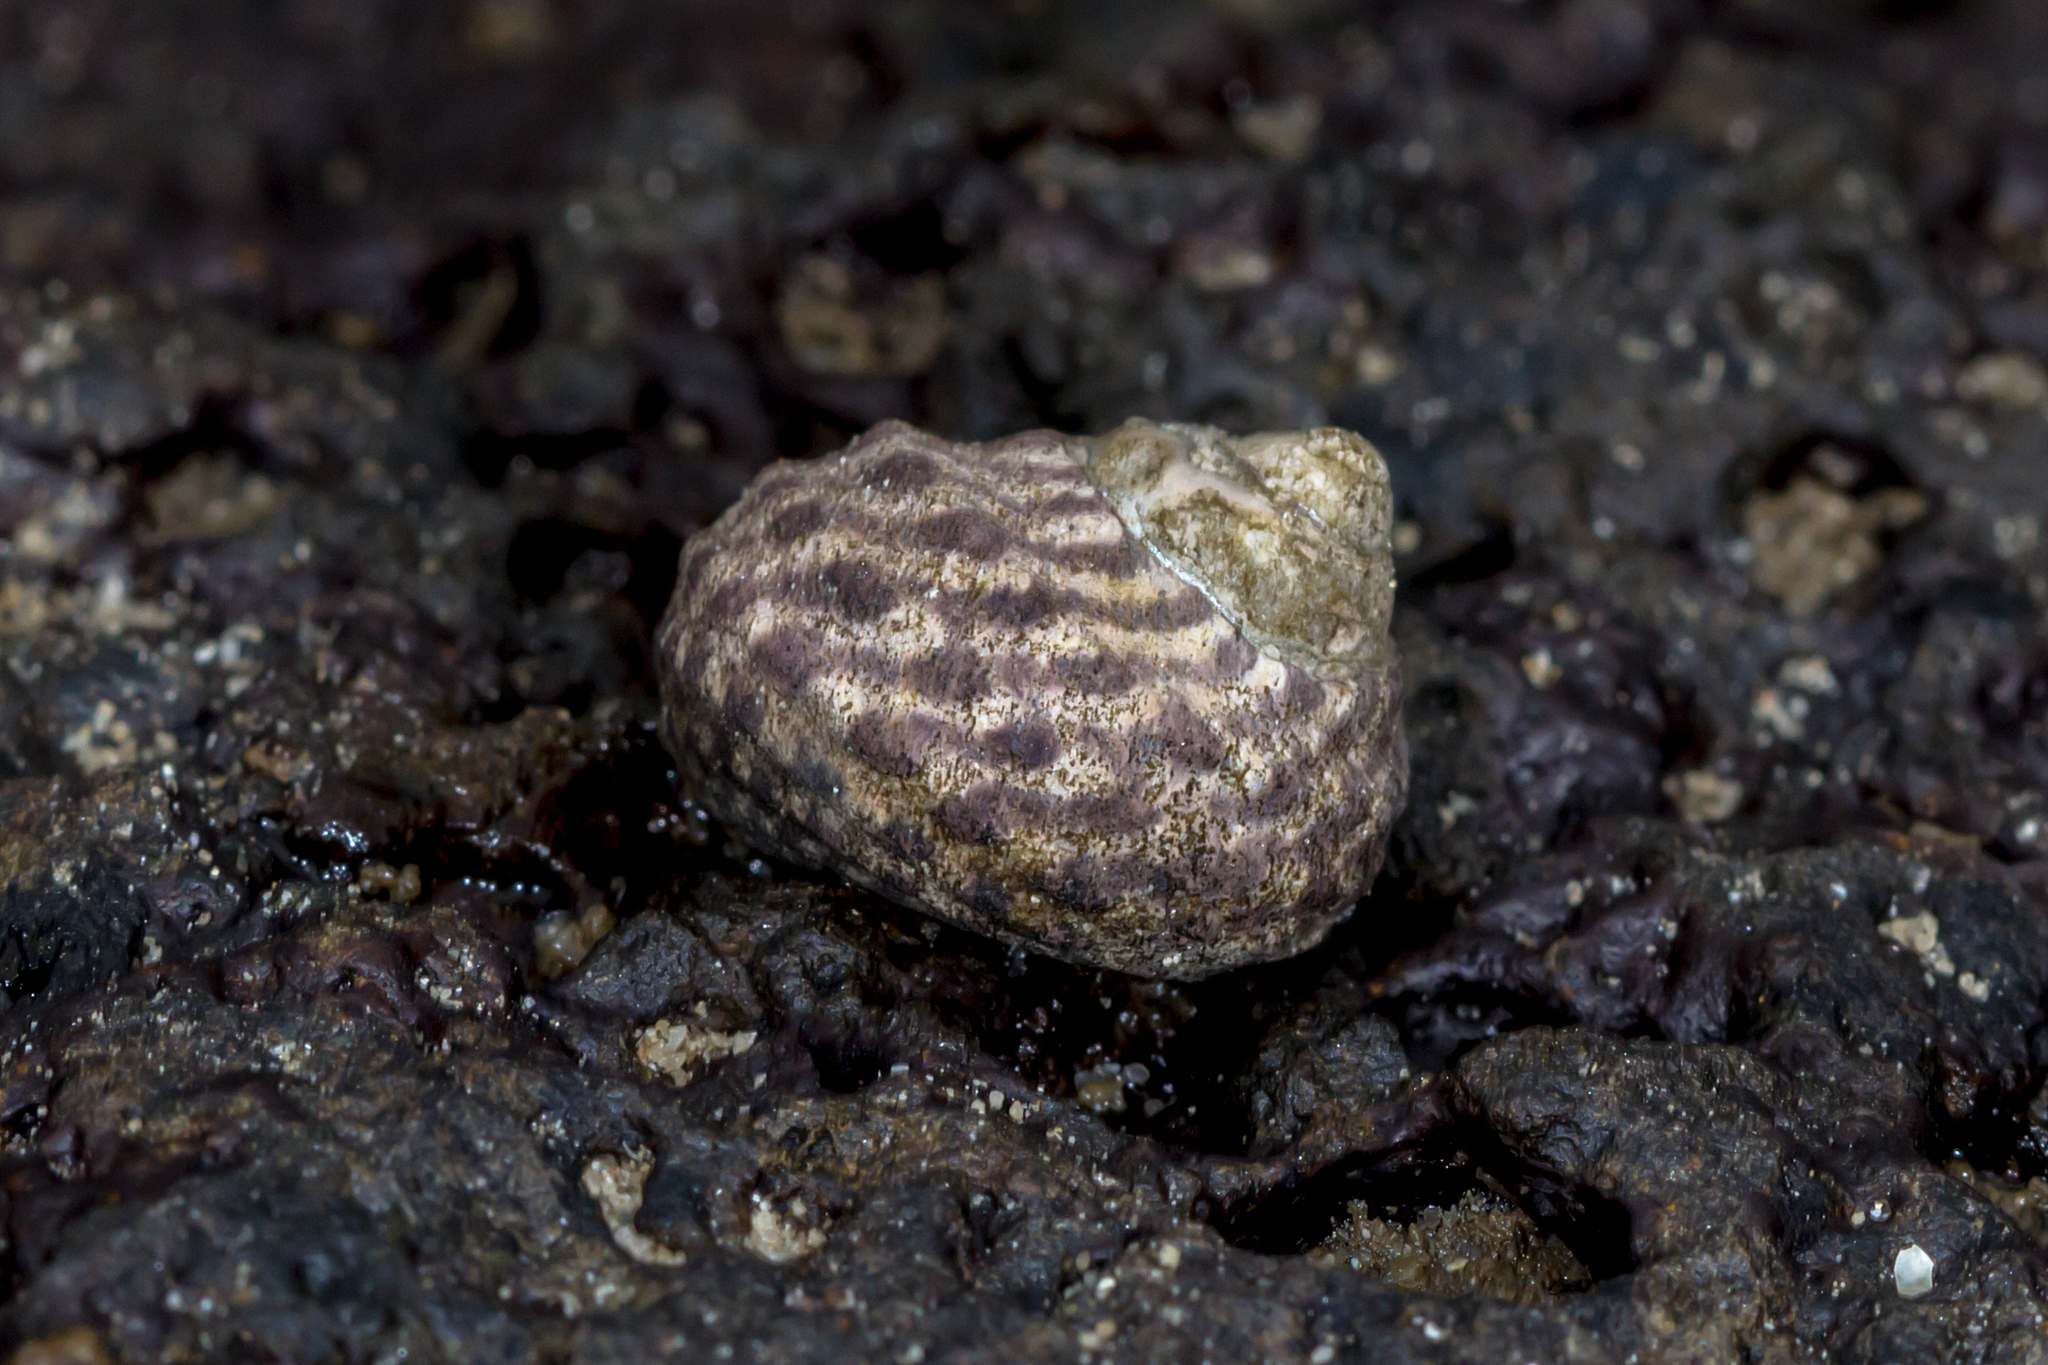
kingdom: Animalia
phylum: Mollusca
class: Gastropoda
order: Trochida
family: Trochidae
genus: Austrocochlea
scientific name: Austrocochlea porcata
